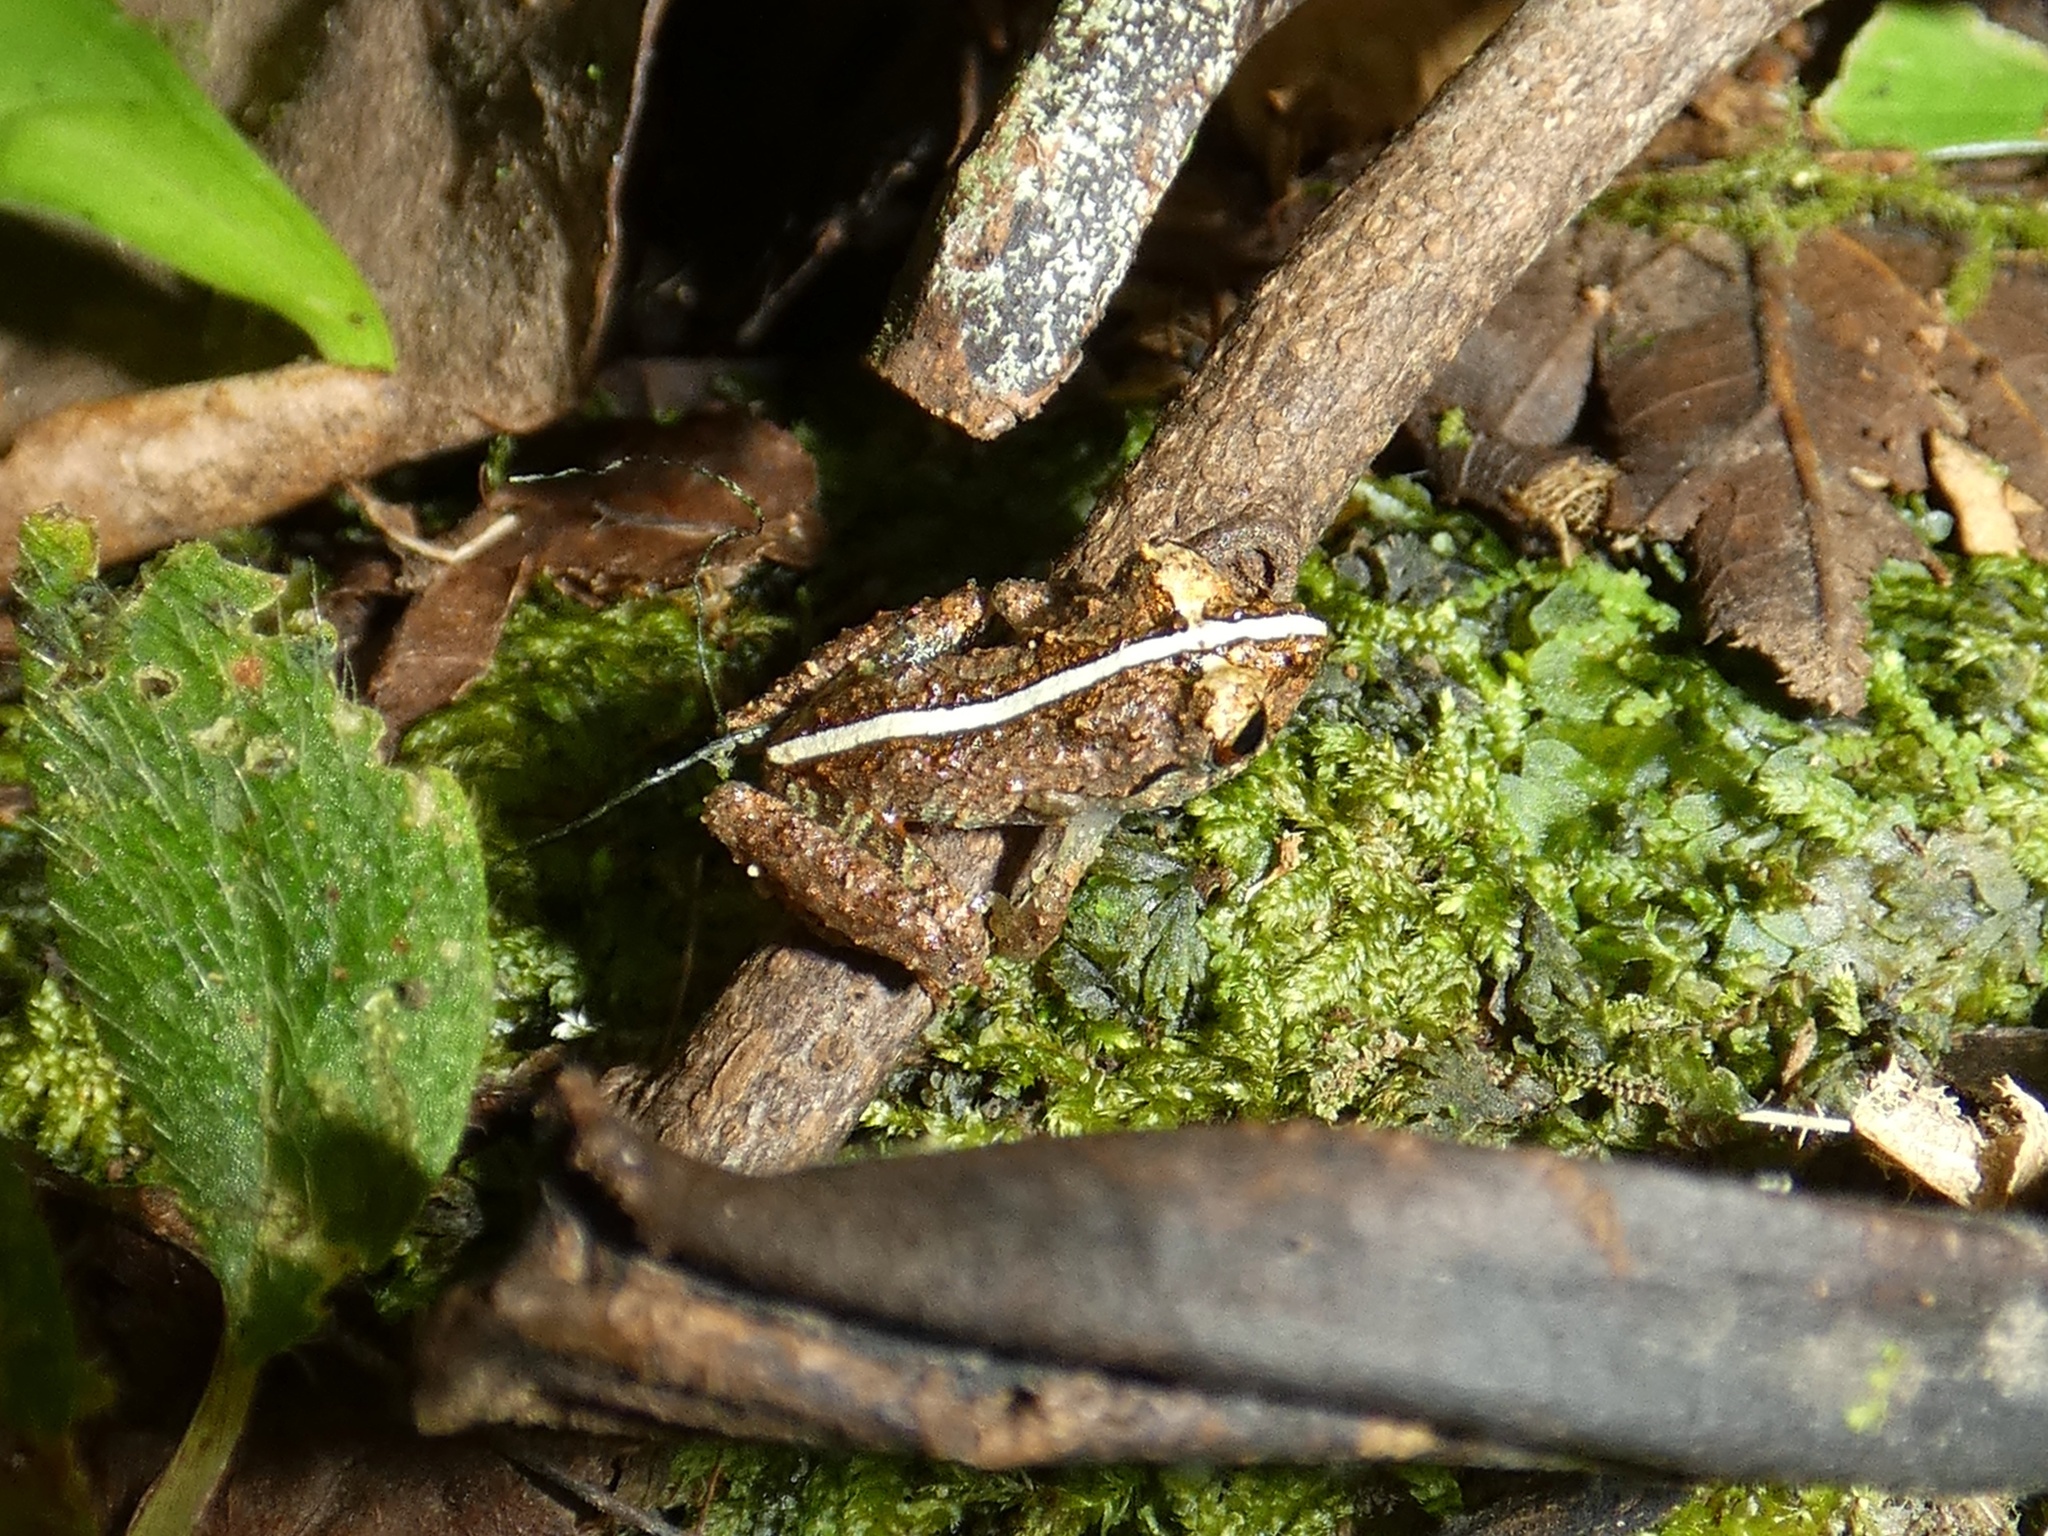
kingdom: Animalia
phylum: Chordata
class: Amphibia
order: Anura
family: Craugastoridae
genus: Pristimantis
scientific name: Pristimantis cruentus
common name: Chiriqui robber frog
